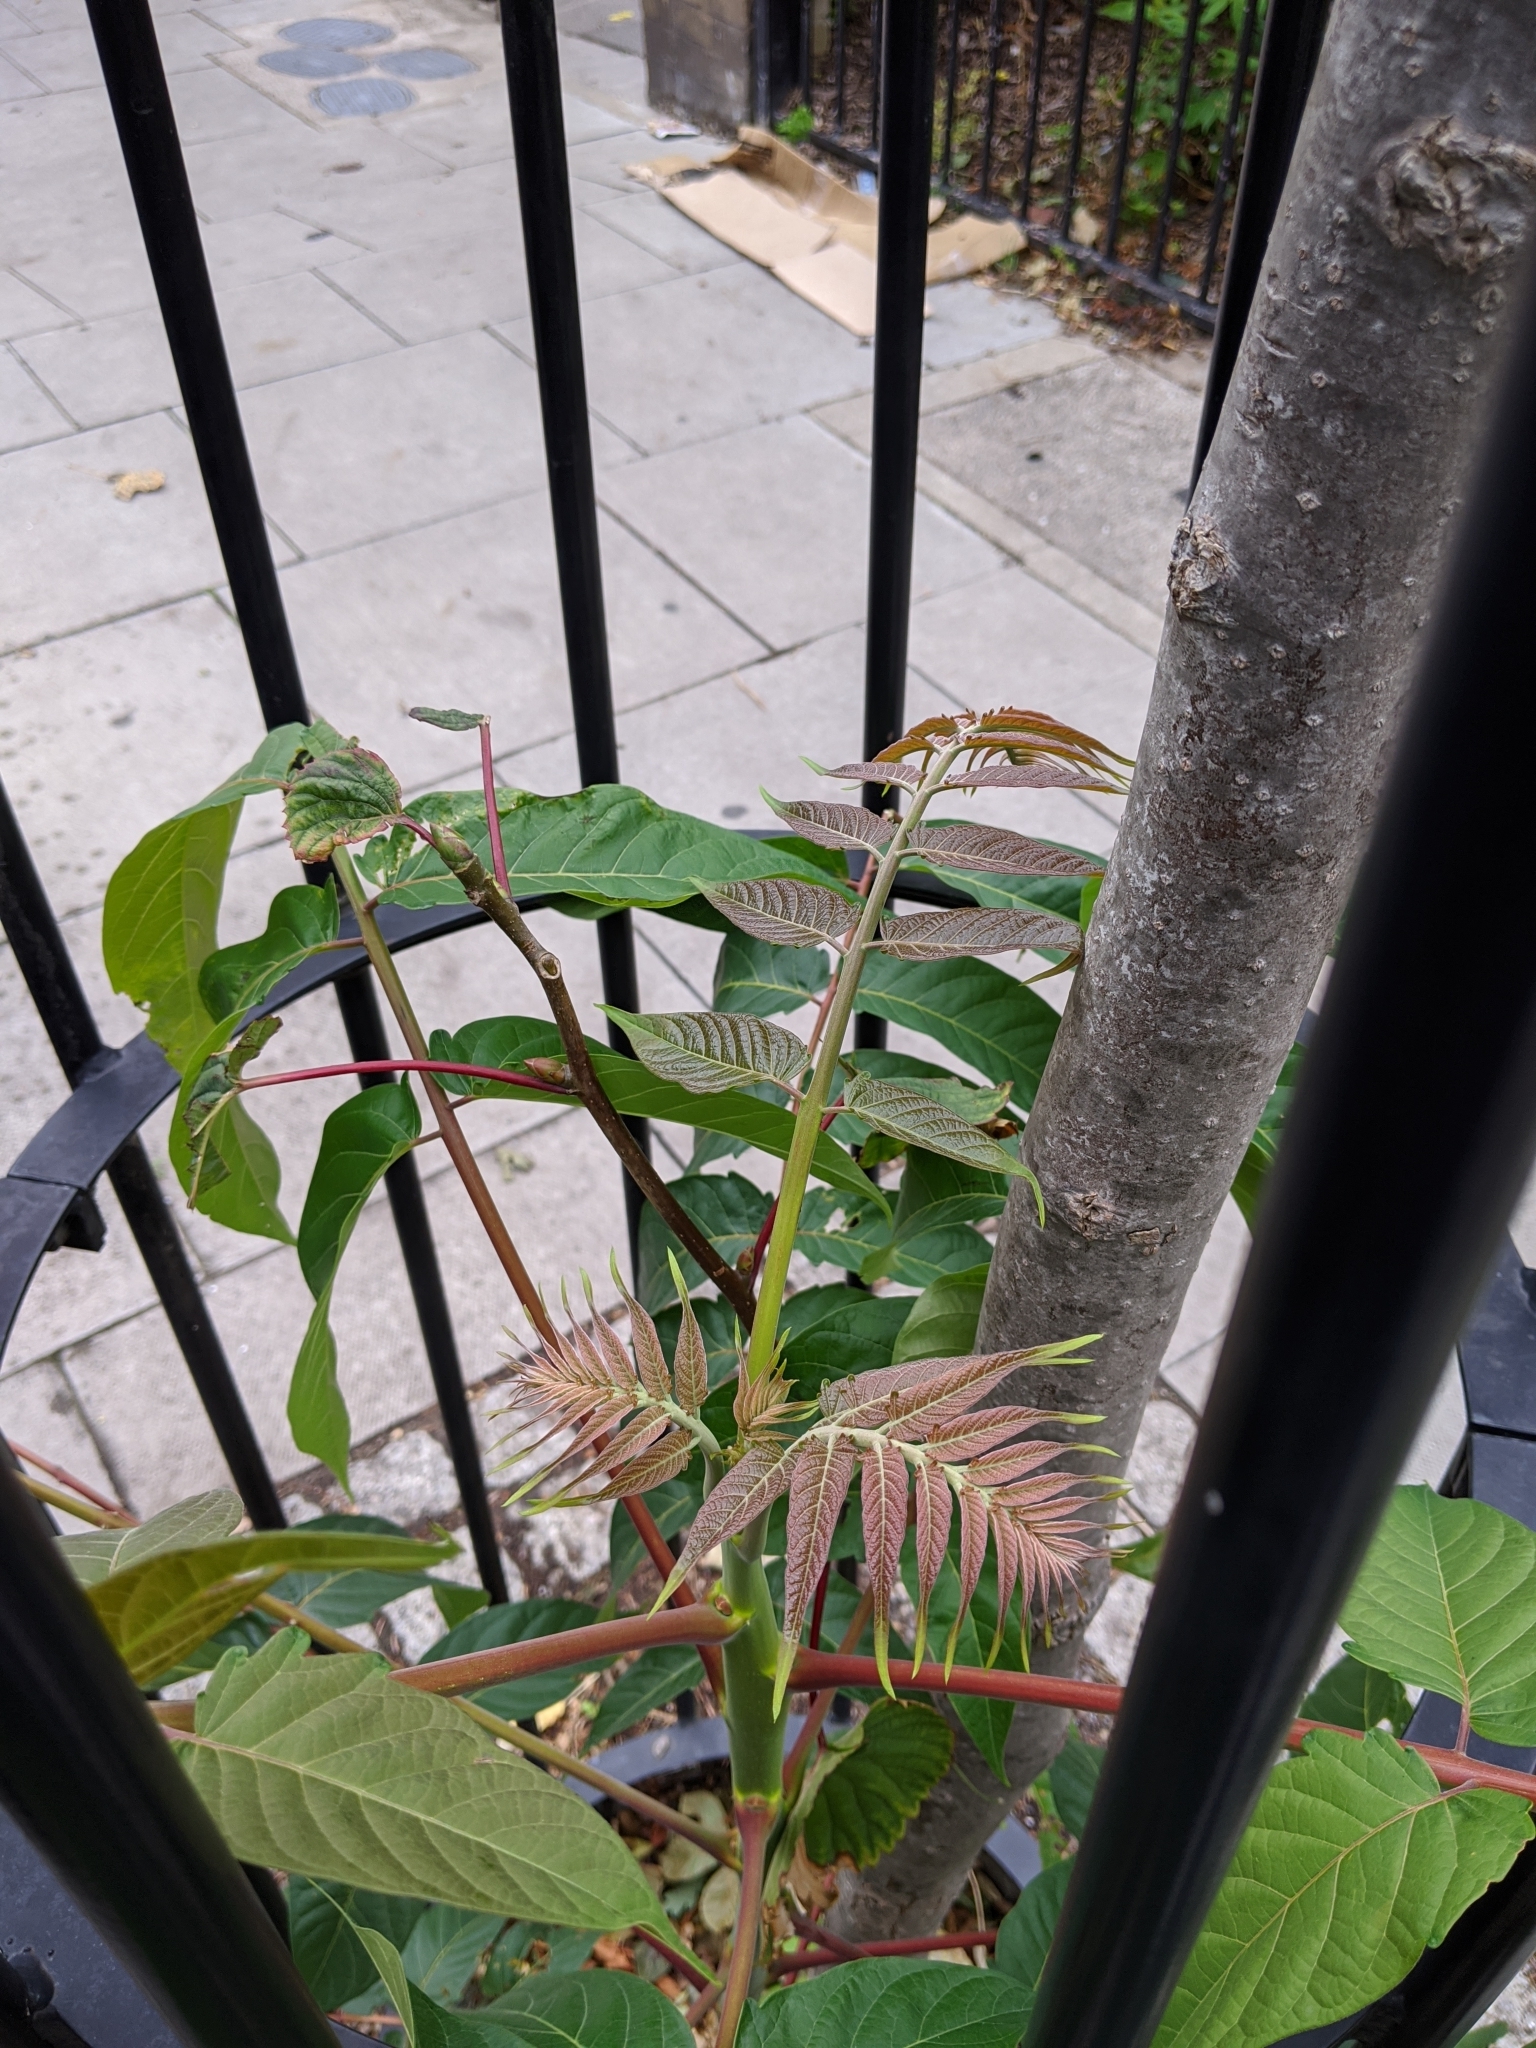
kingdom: Plantae
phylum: Tracheophyta
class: Magnoliopsida
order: Sapindales
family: Simaroubaceae
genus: Ailanthus
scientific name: Ailanthus altissima
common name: Tree-of-heaven
